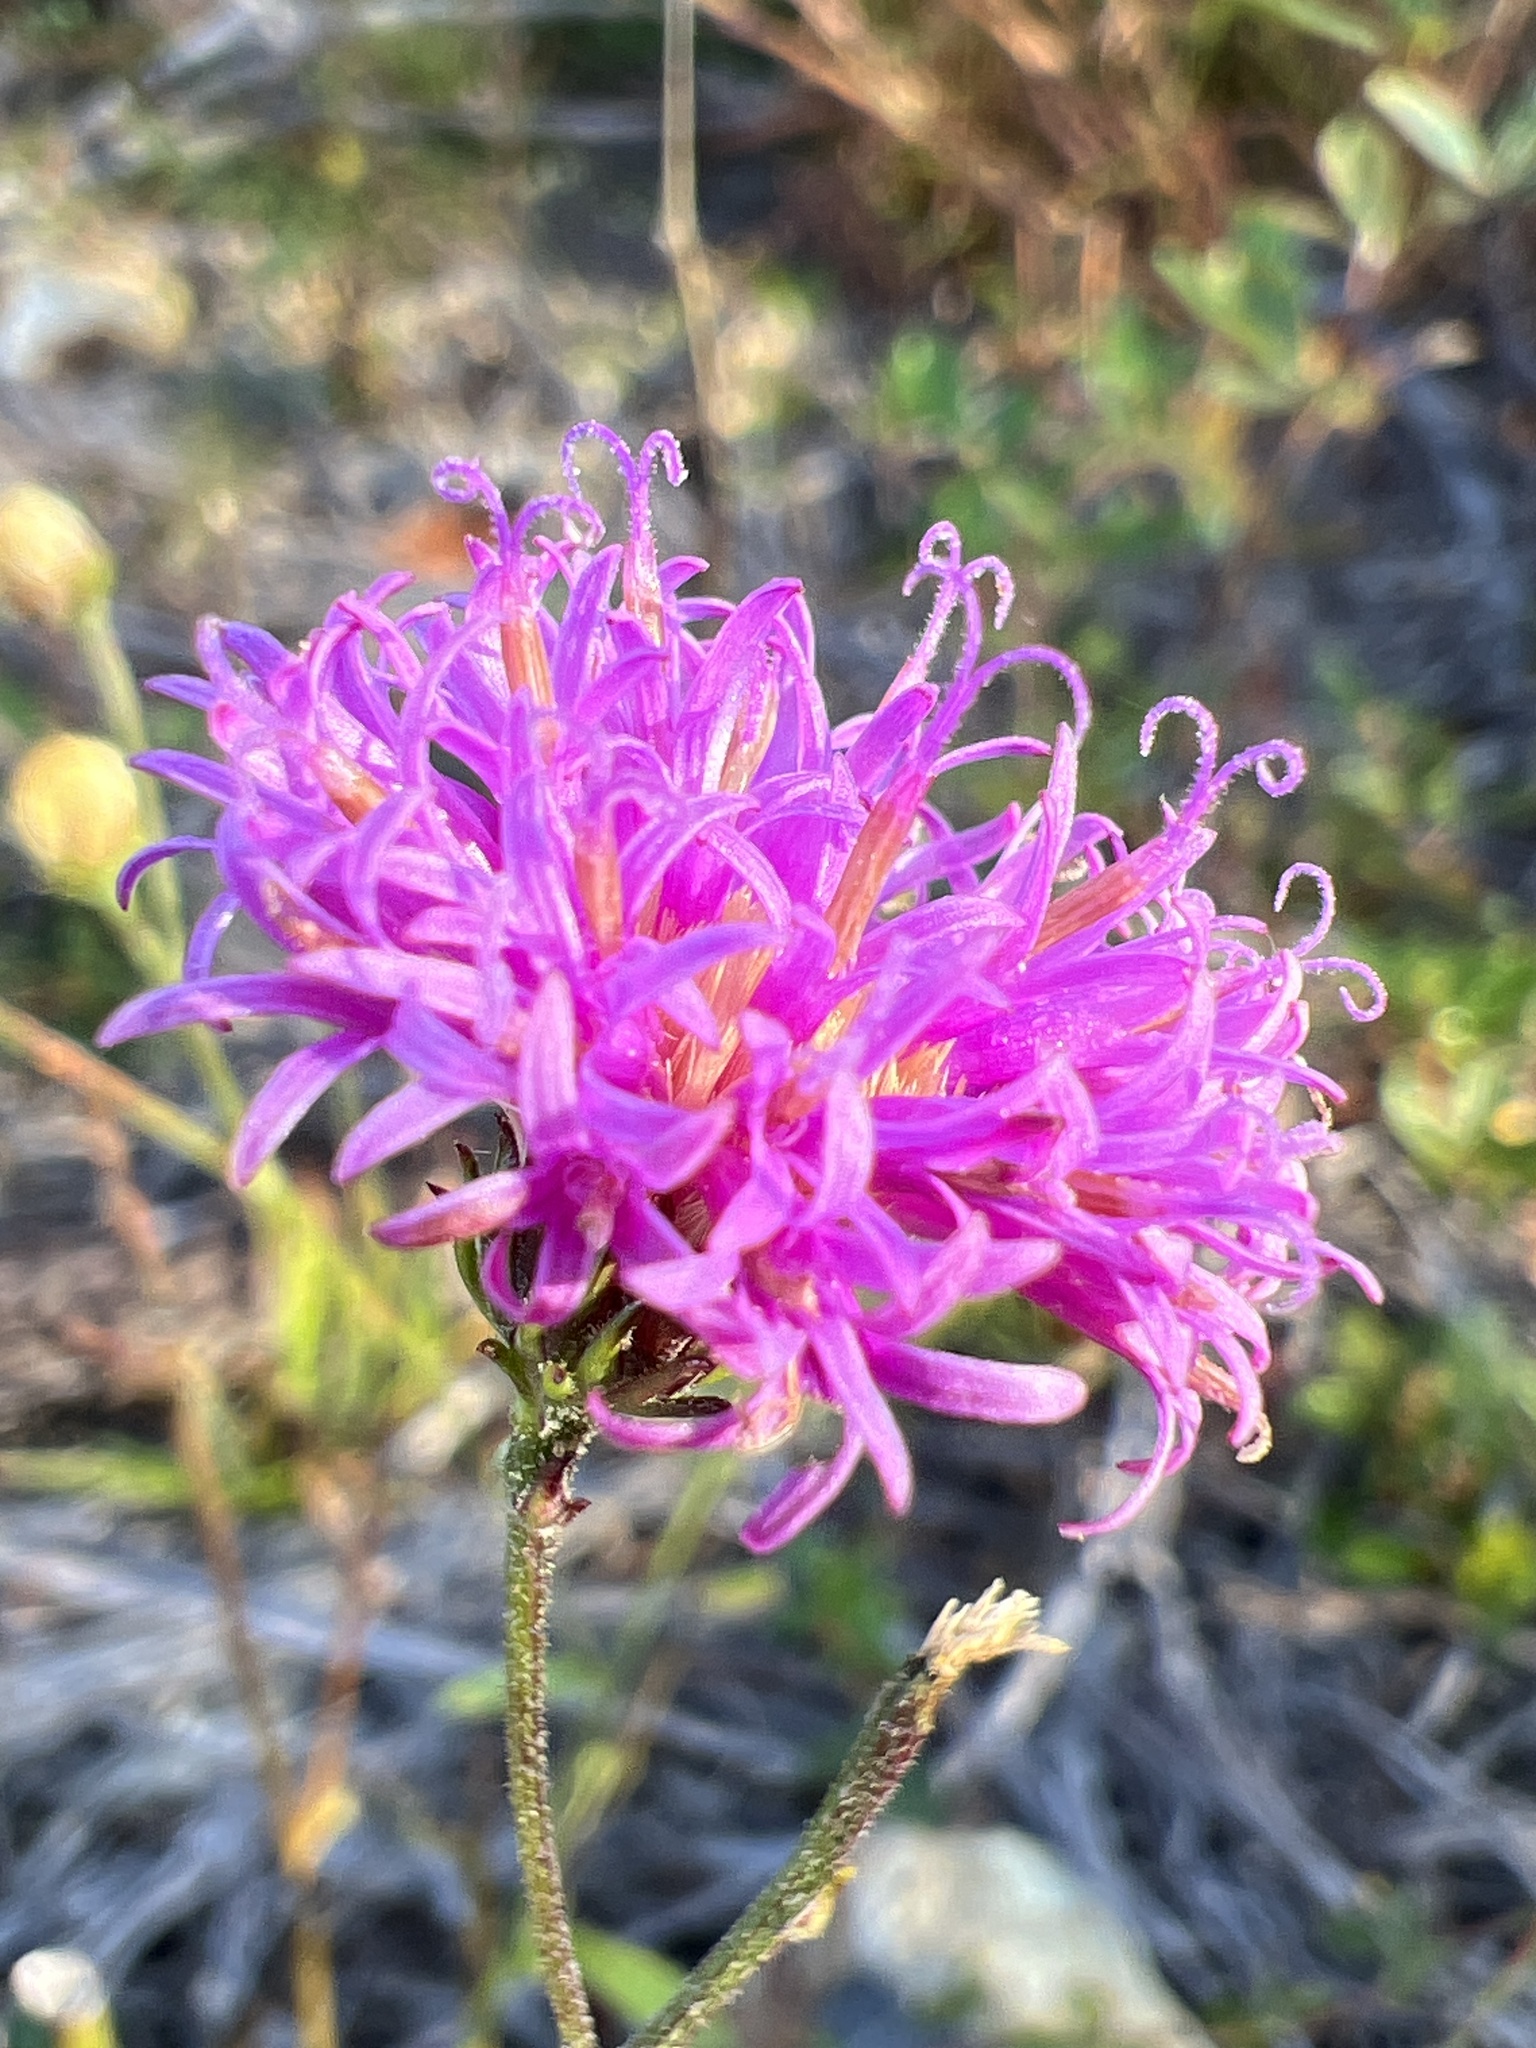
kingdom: Plantae
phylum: Tracheophyta
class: Magnoliopsida
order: Asterales
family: Asteraceae
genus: Vernonia
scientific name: Vernonia acaulis
